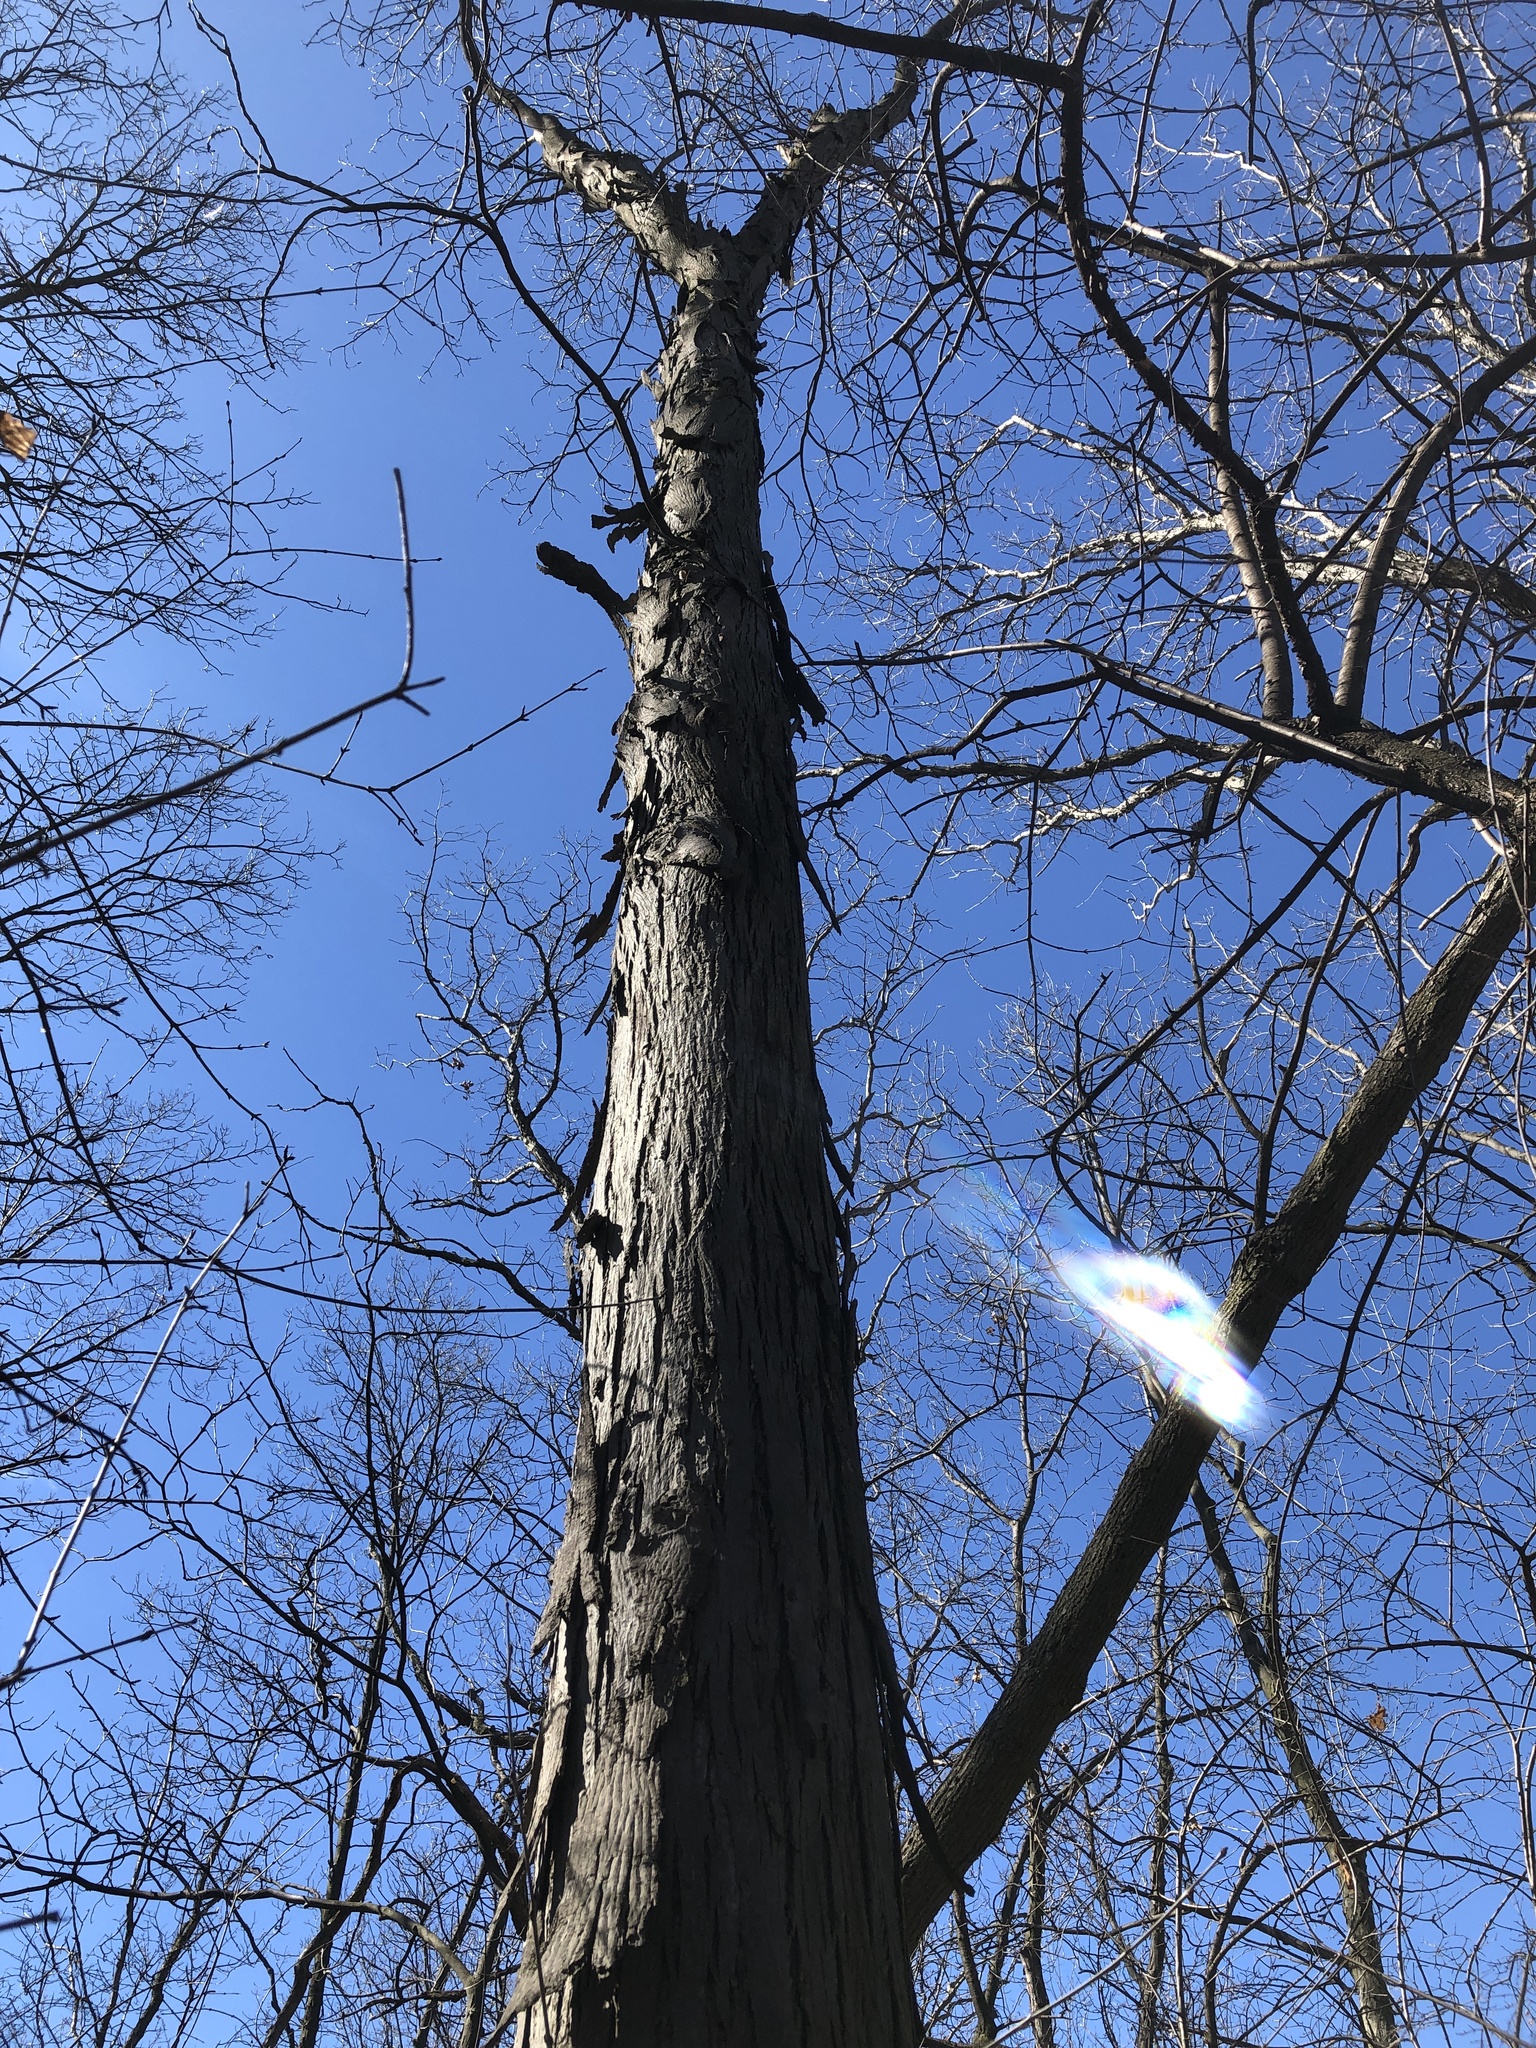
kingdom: Plantae
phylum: Tracheophyta
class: Magnoliopsida
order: Fagales
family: Juglandaceae
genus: Carya
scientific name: Carya ovata
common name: Shagbark hickory
